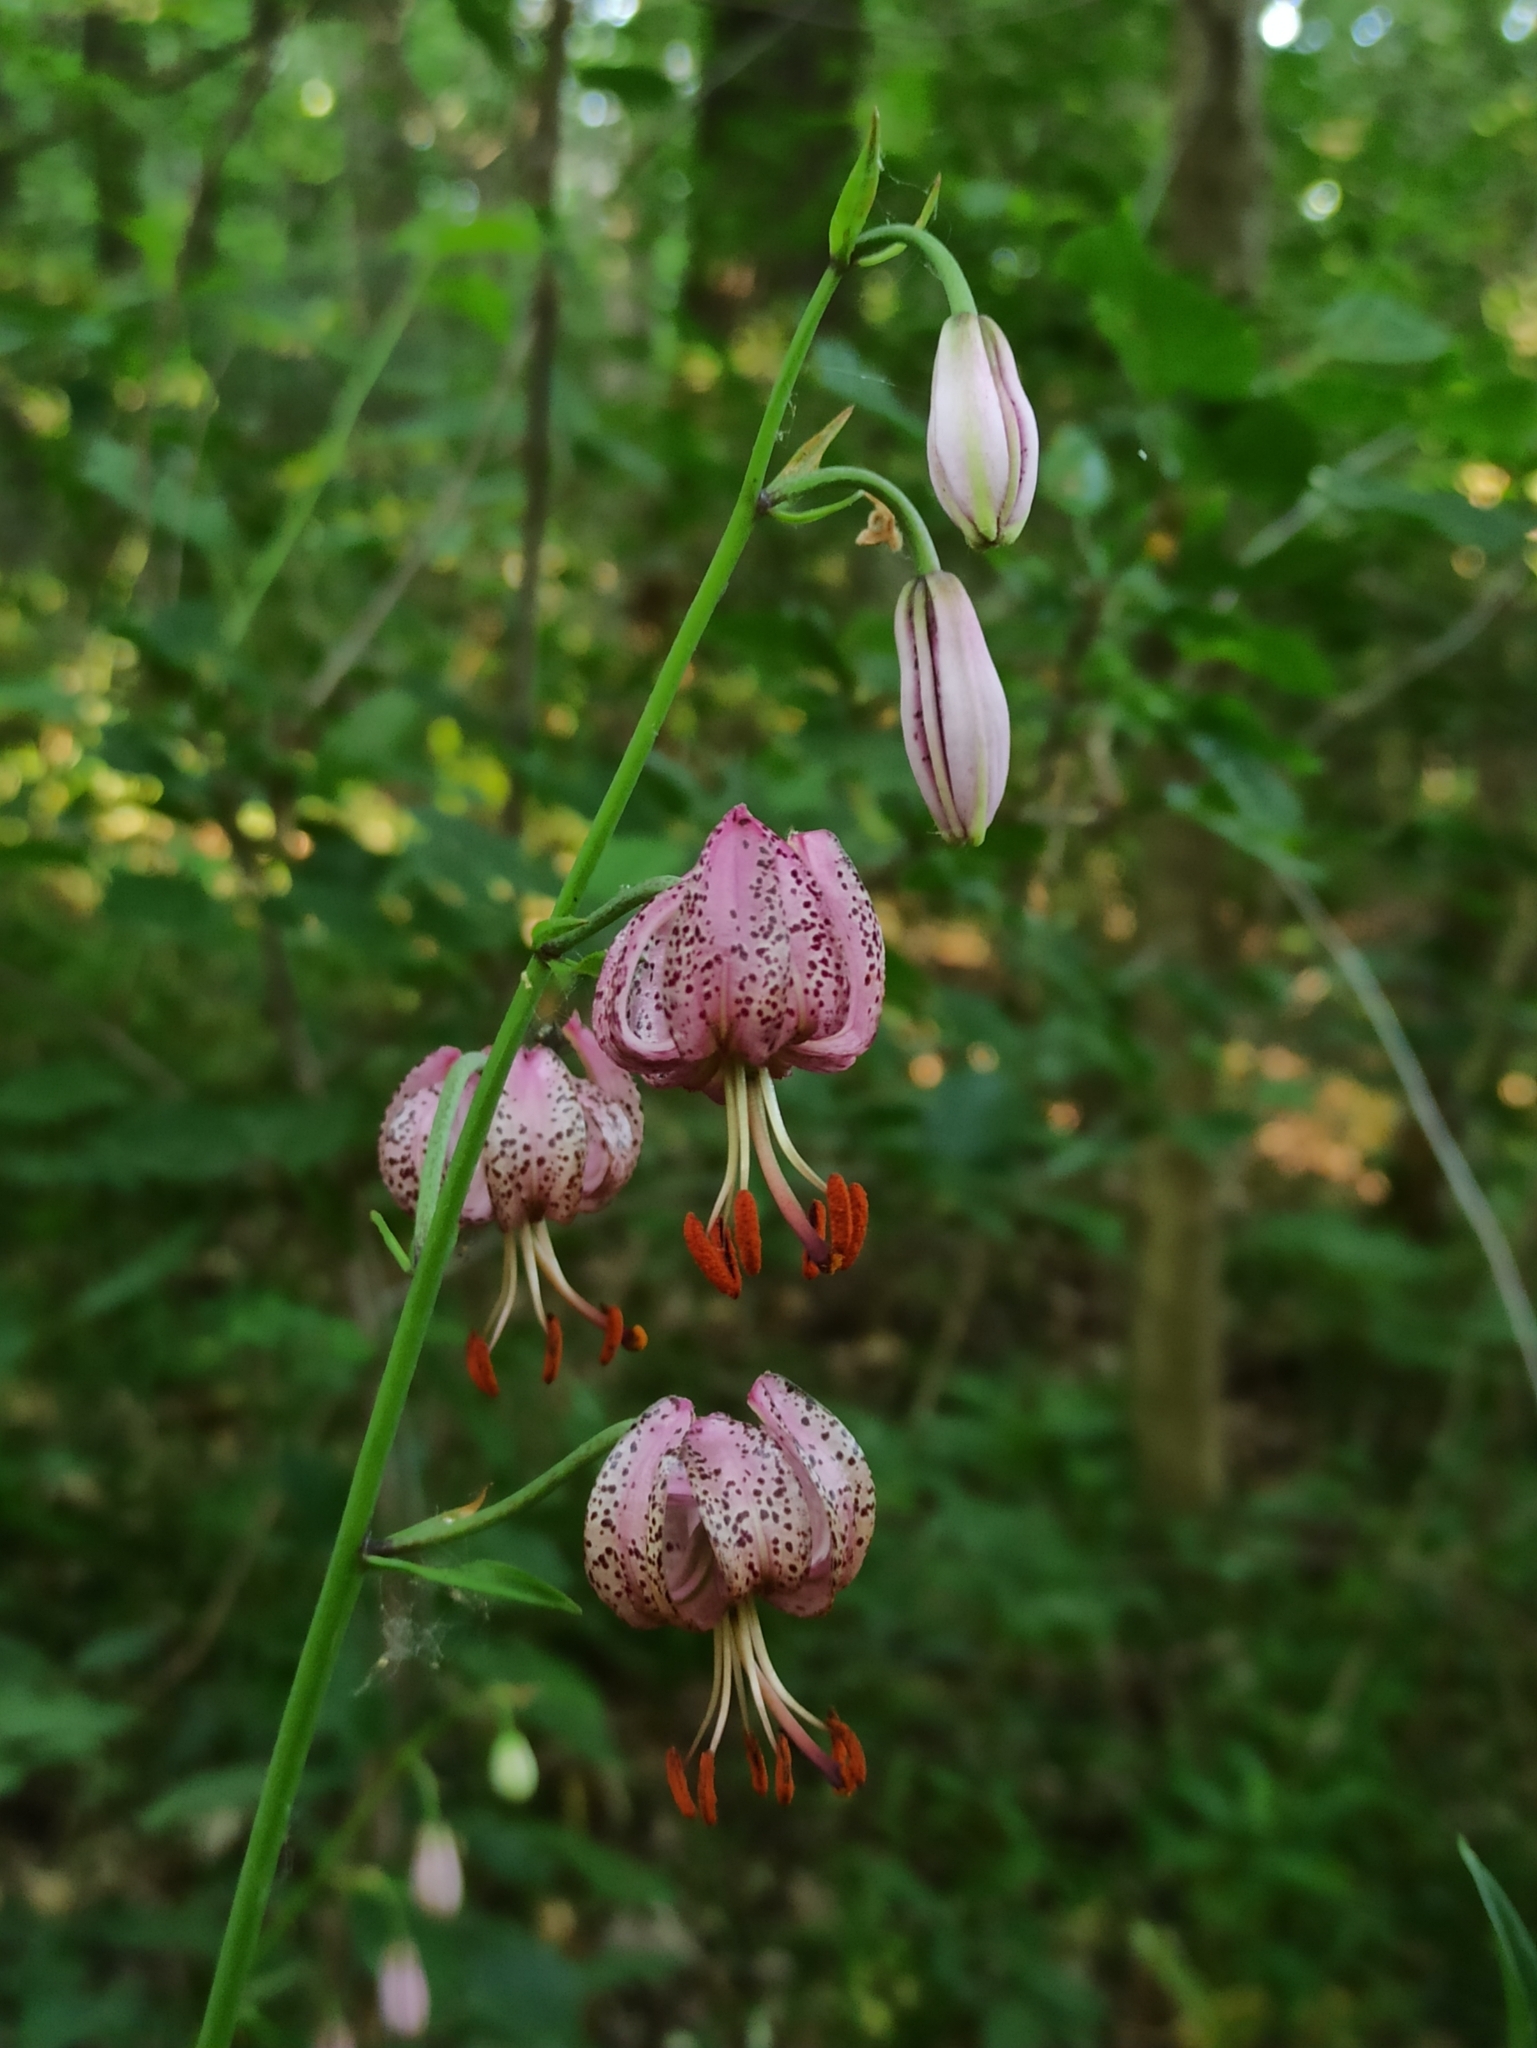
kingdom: Plantae
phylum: Tracheophyta
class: Liliopsida
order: Liliales
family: Liliaceae
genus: Lilium
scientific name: Lilium martagon
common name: Martagon lily
